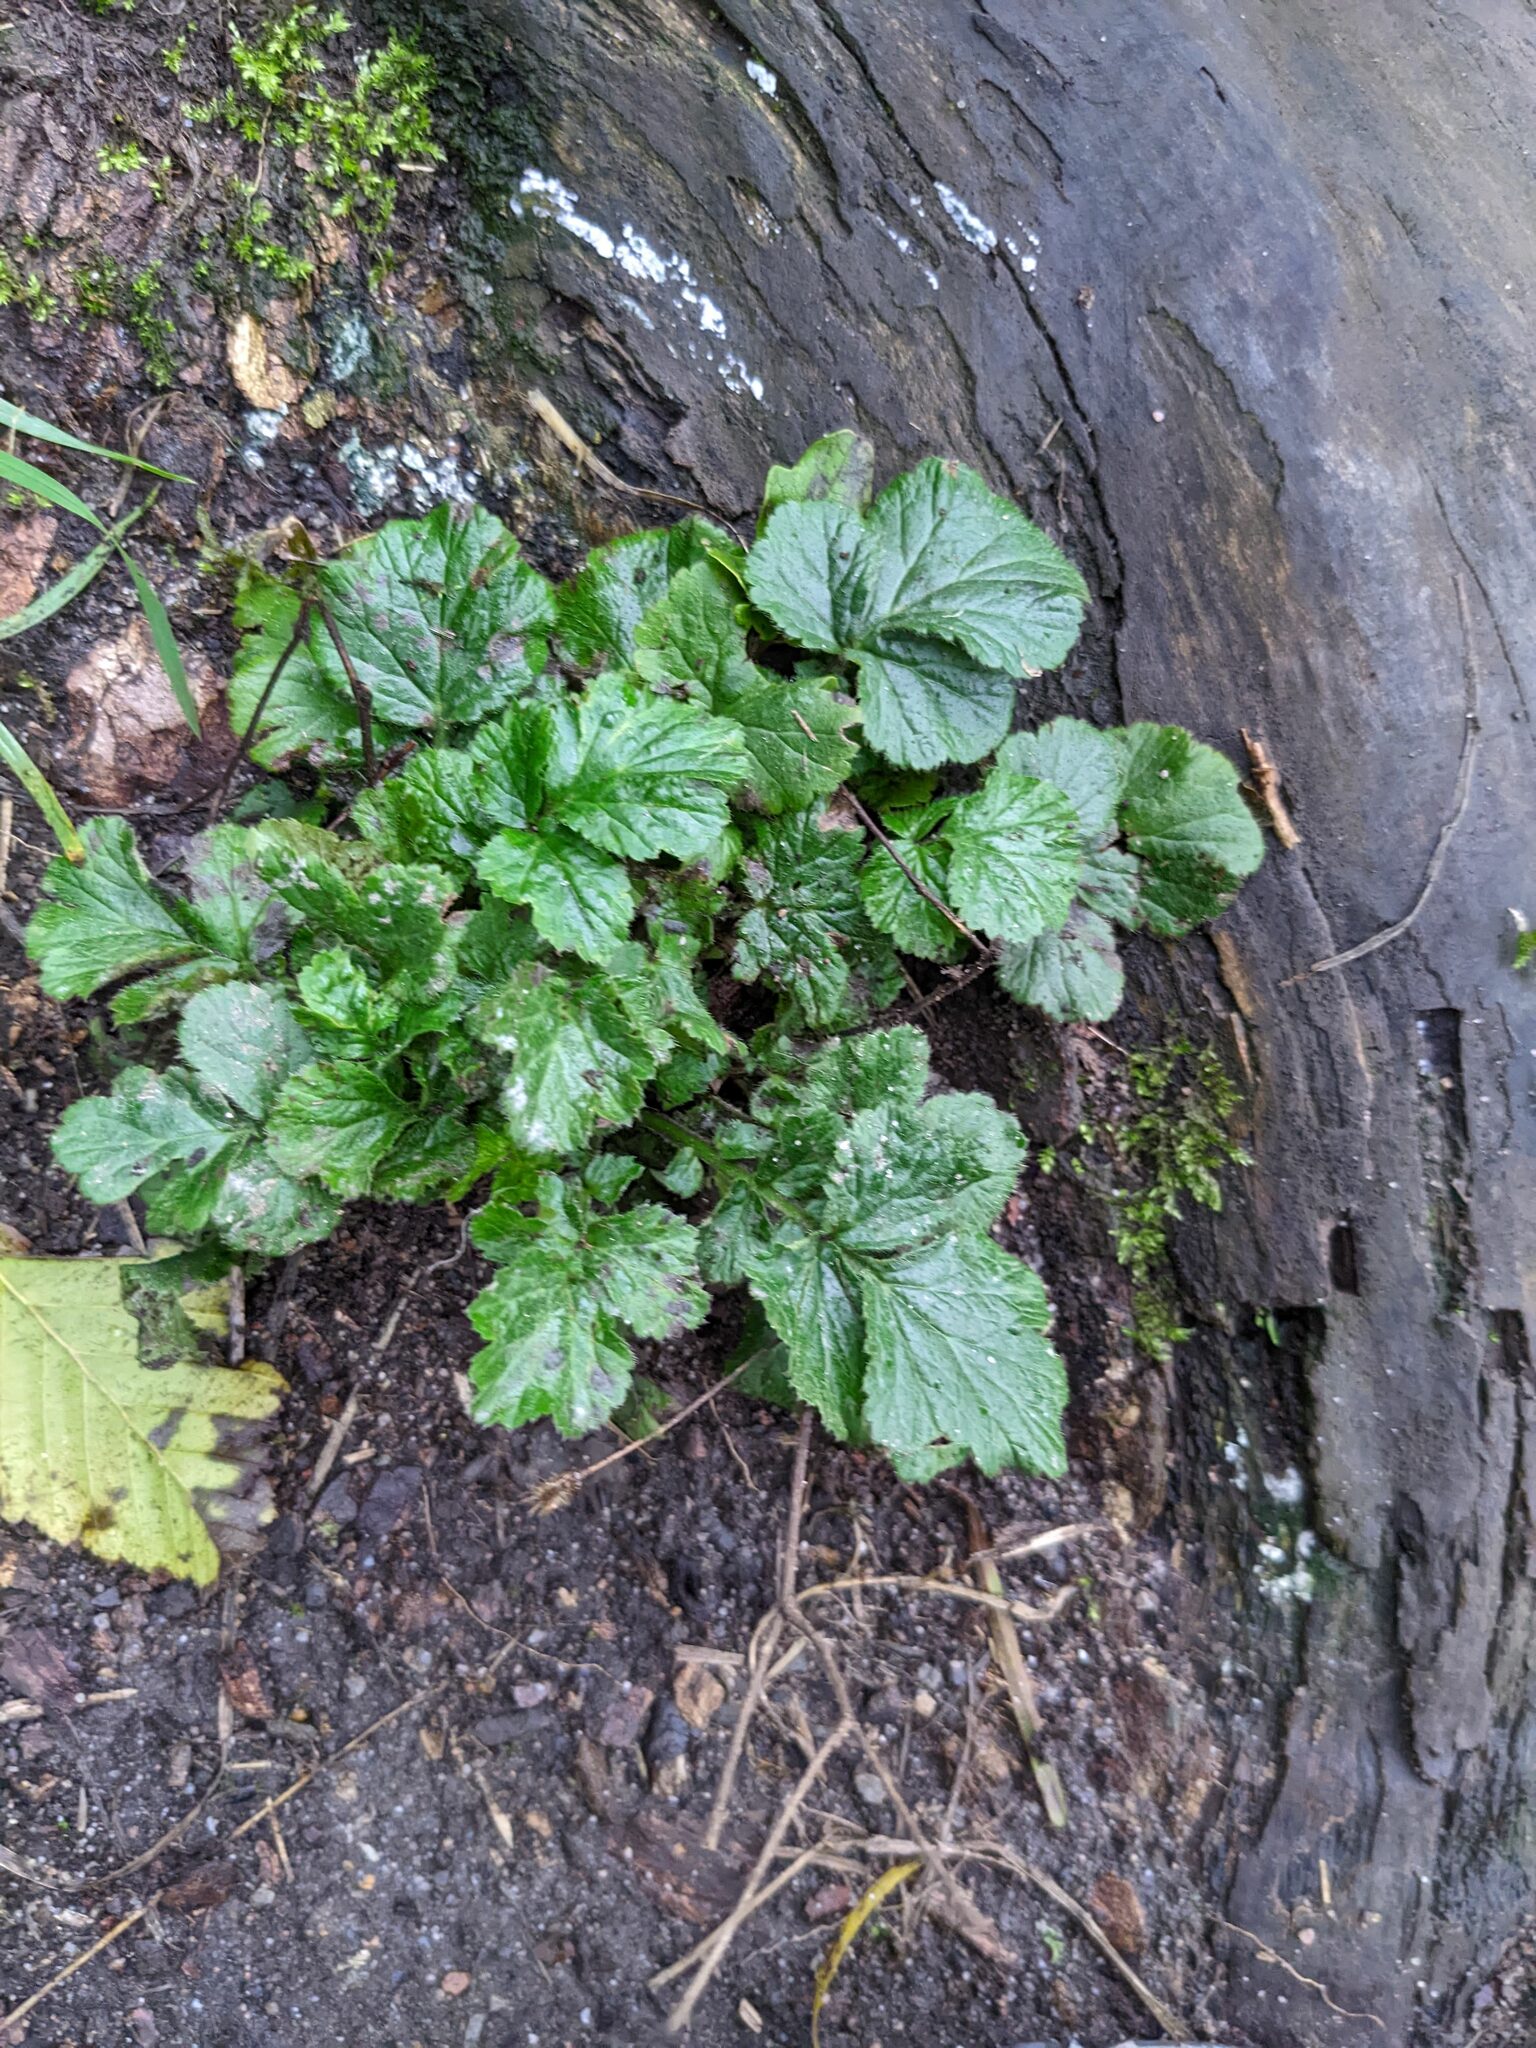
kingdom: Plantae
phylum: Tracheophyta
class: Magnoliopsida
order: Rosales
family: Rosaceae
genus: Geum
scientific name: Geum urbanum
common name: Wood avens
